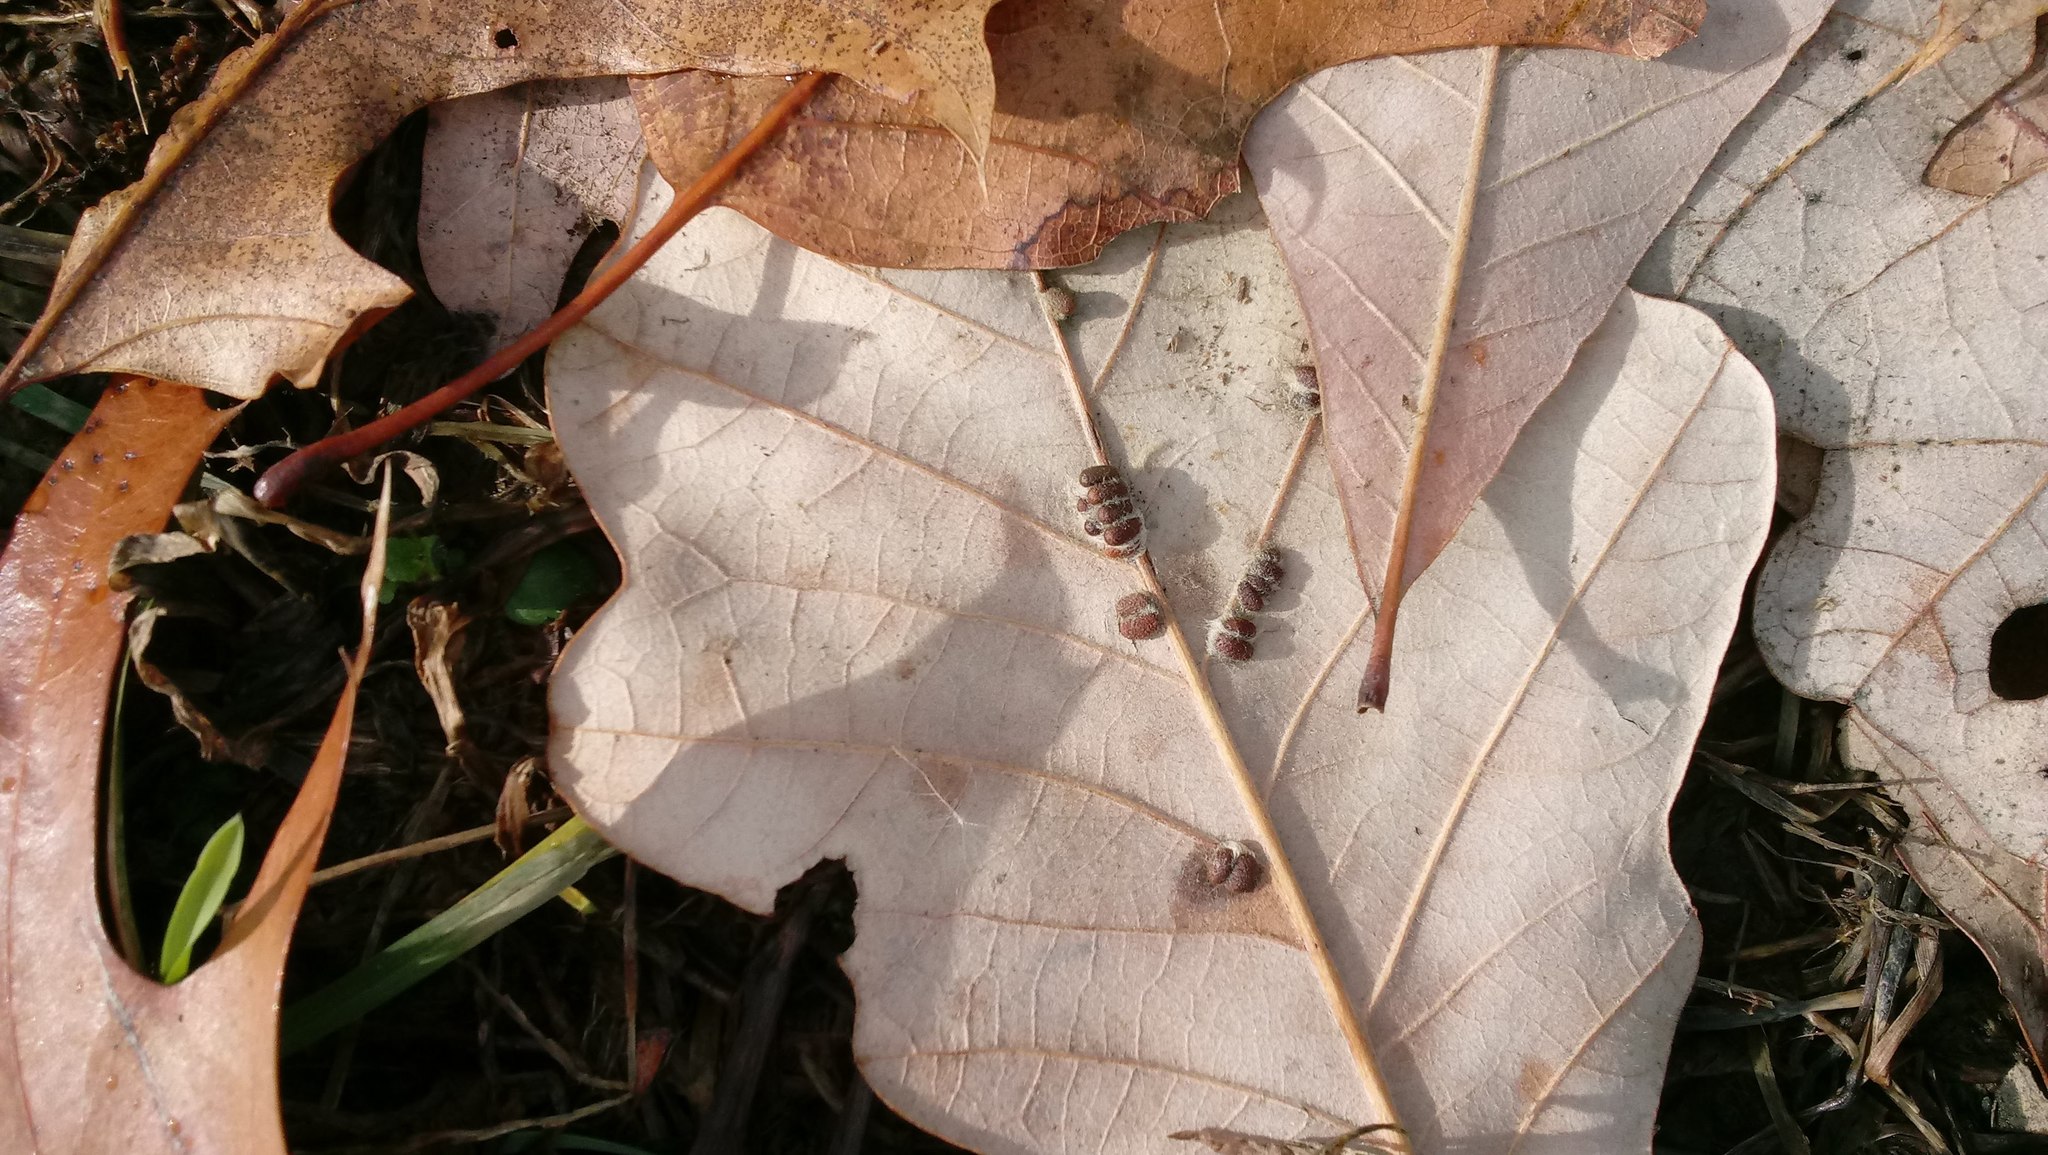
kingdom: Animalia
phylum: Arthropoda
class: Insecta
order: Hymenoptera
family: Cynipidae
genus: Andricus
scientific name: Andricus Druon ignotum
